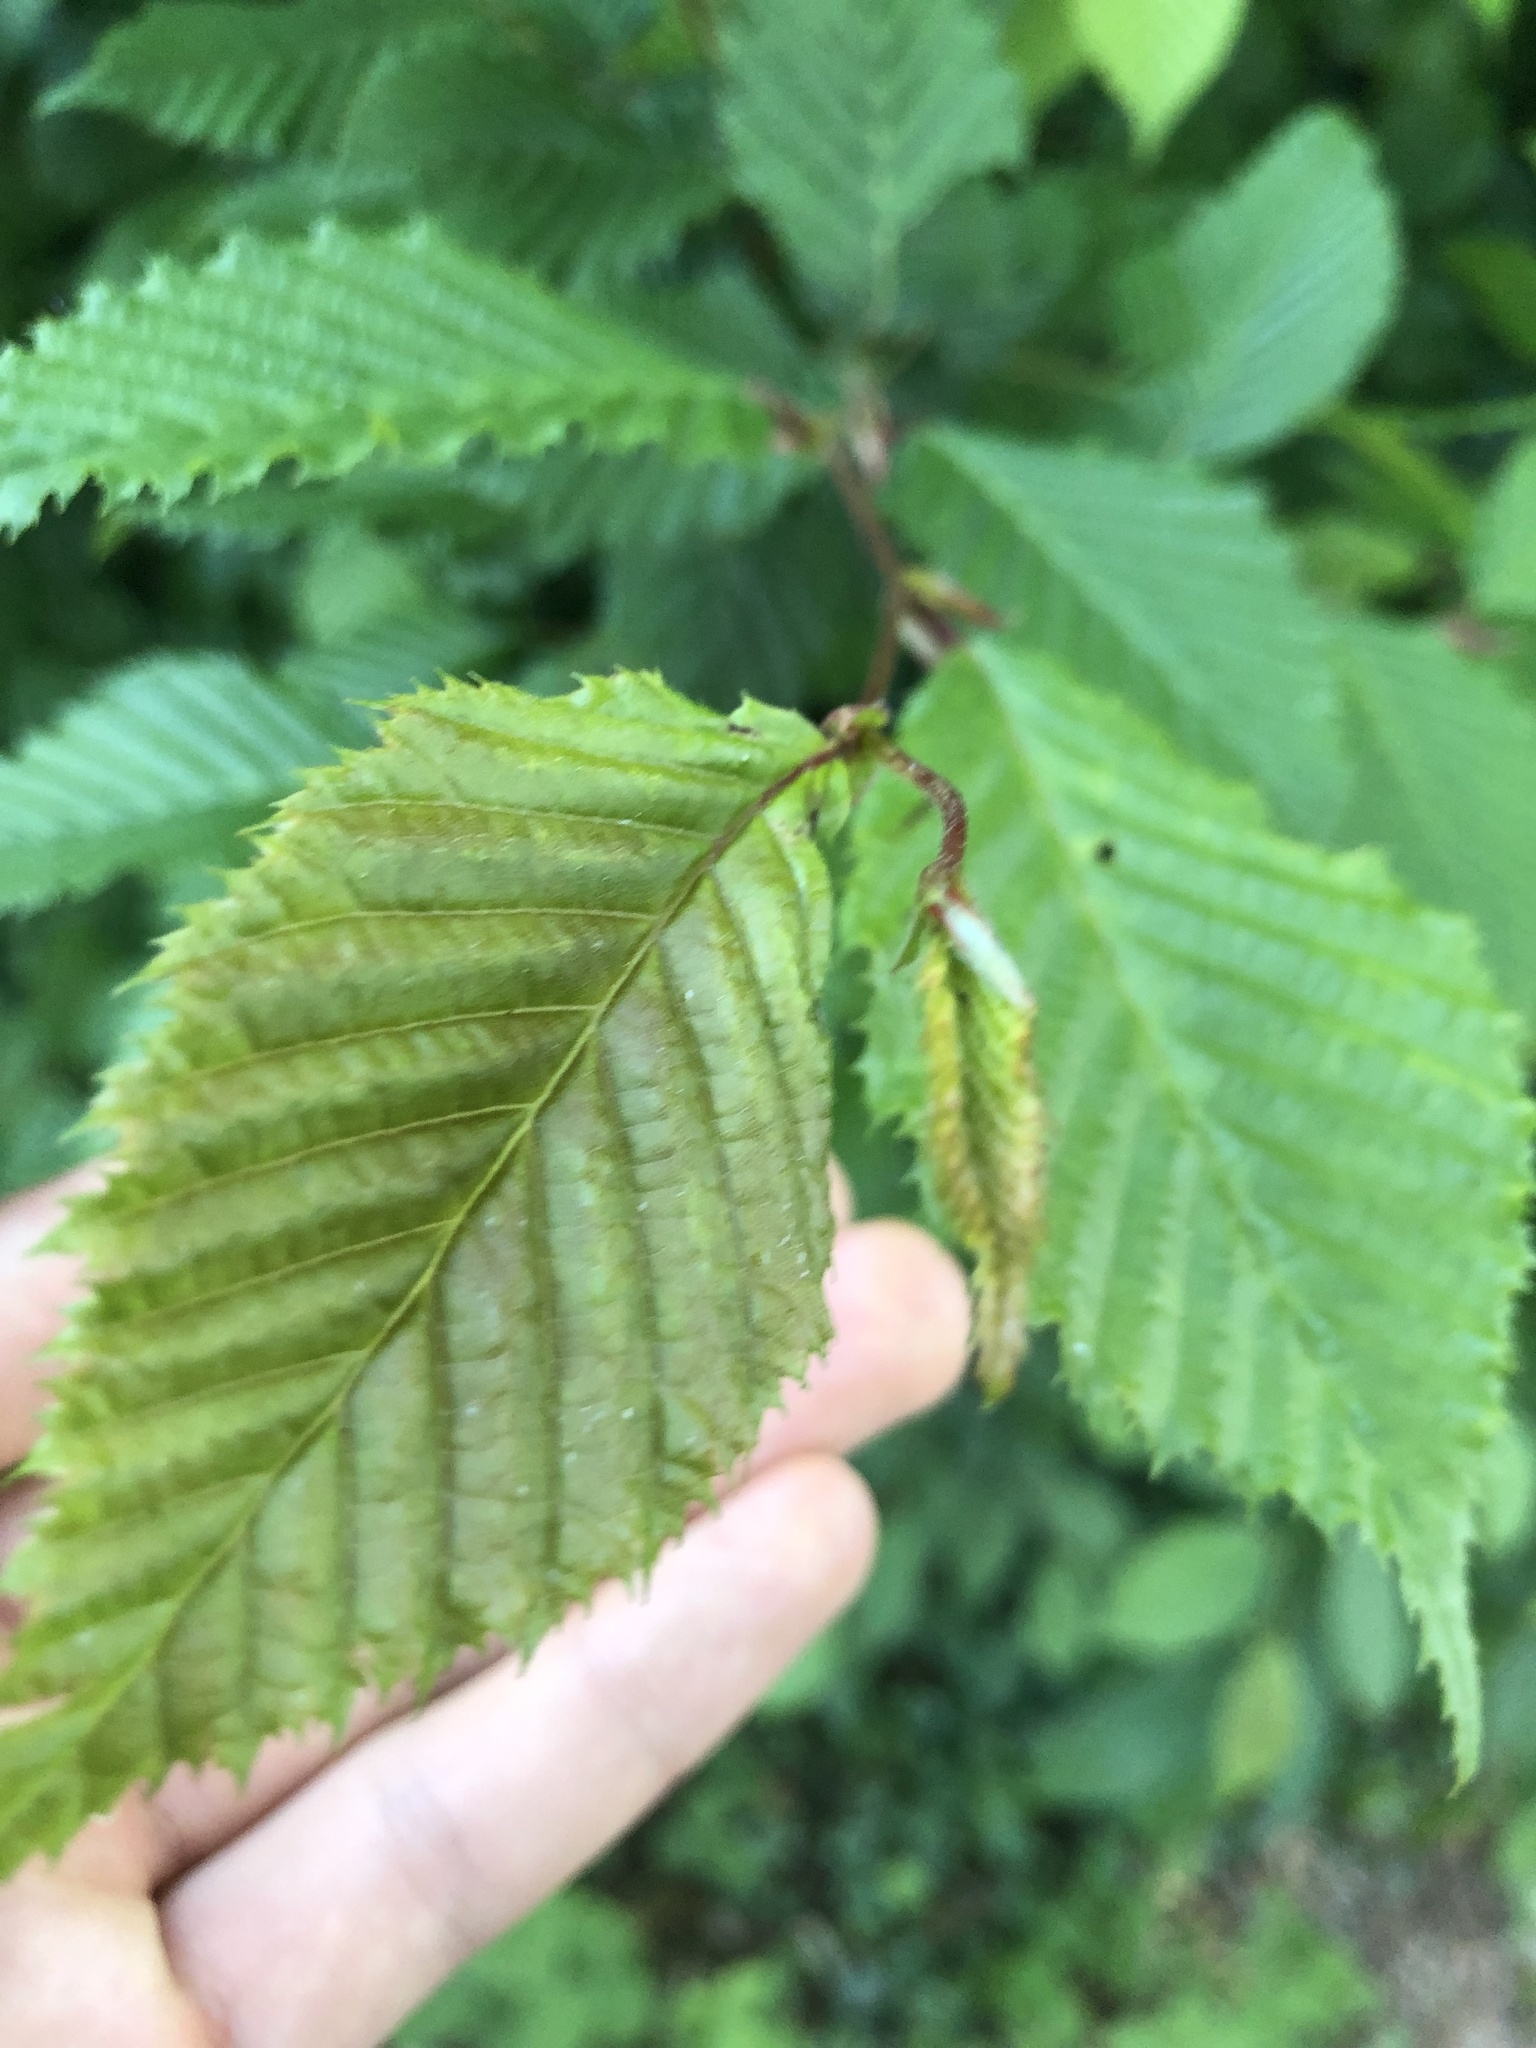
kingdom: Plantae
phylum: Tracheophyta
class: Magnoliopsida
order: Fagales
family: Betulaceae
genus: Carpinus
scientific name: Carpinus betulus
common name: Hornbeam
